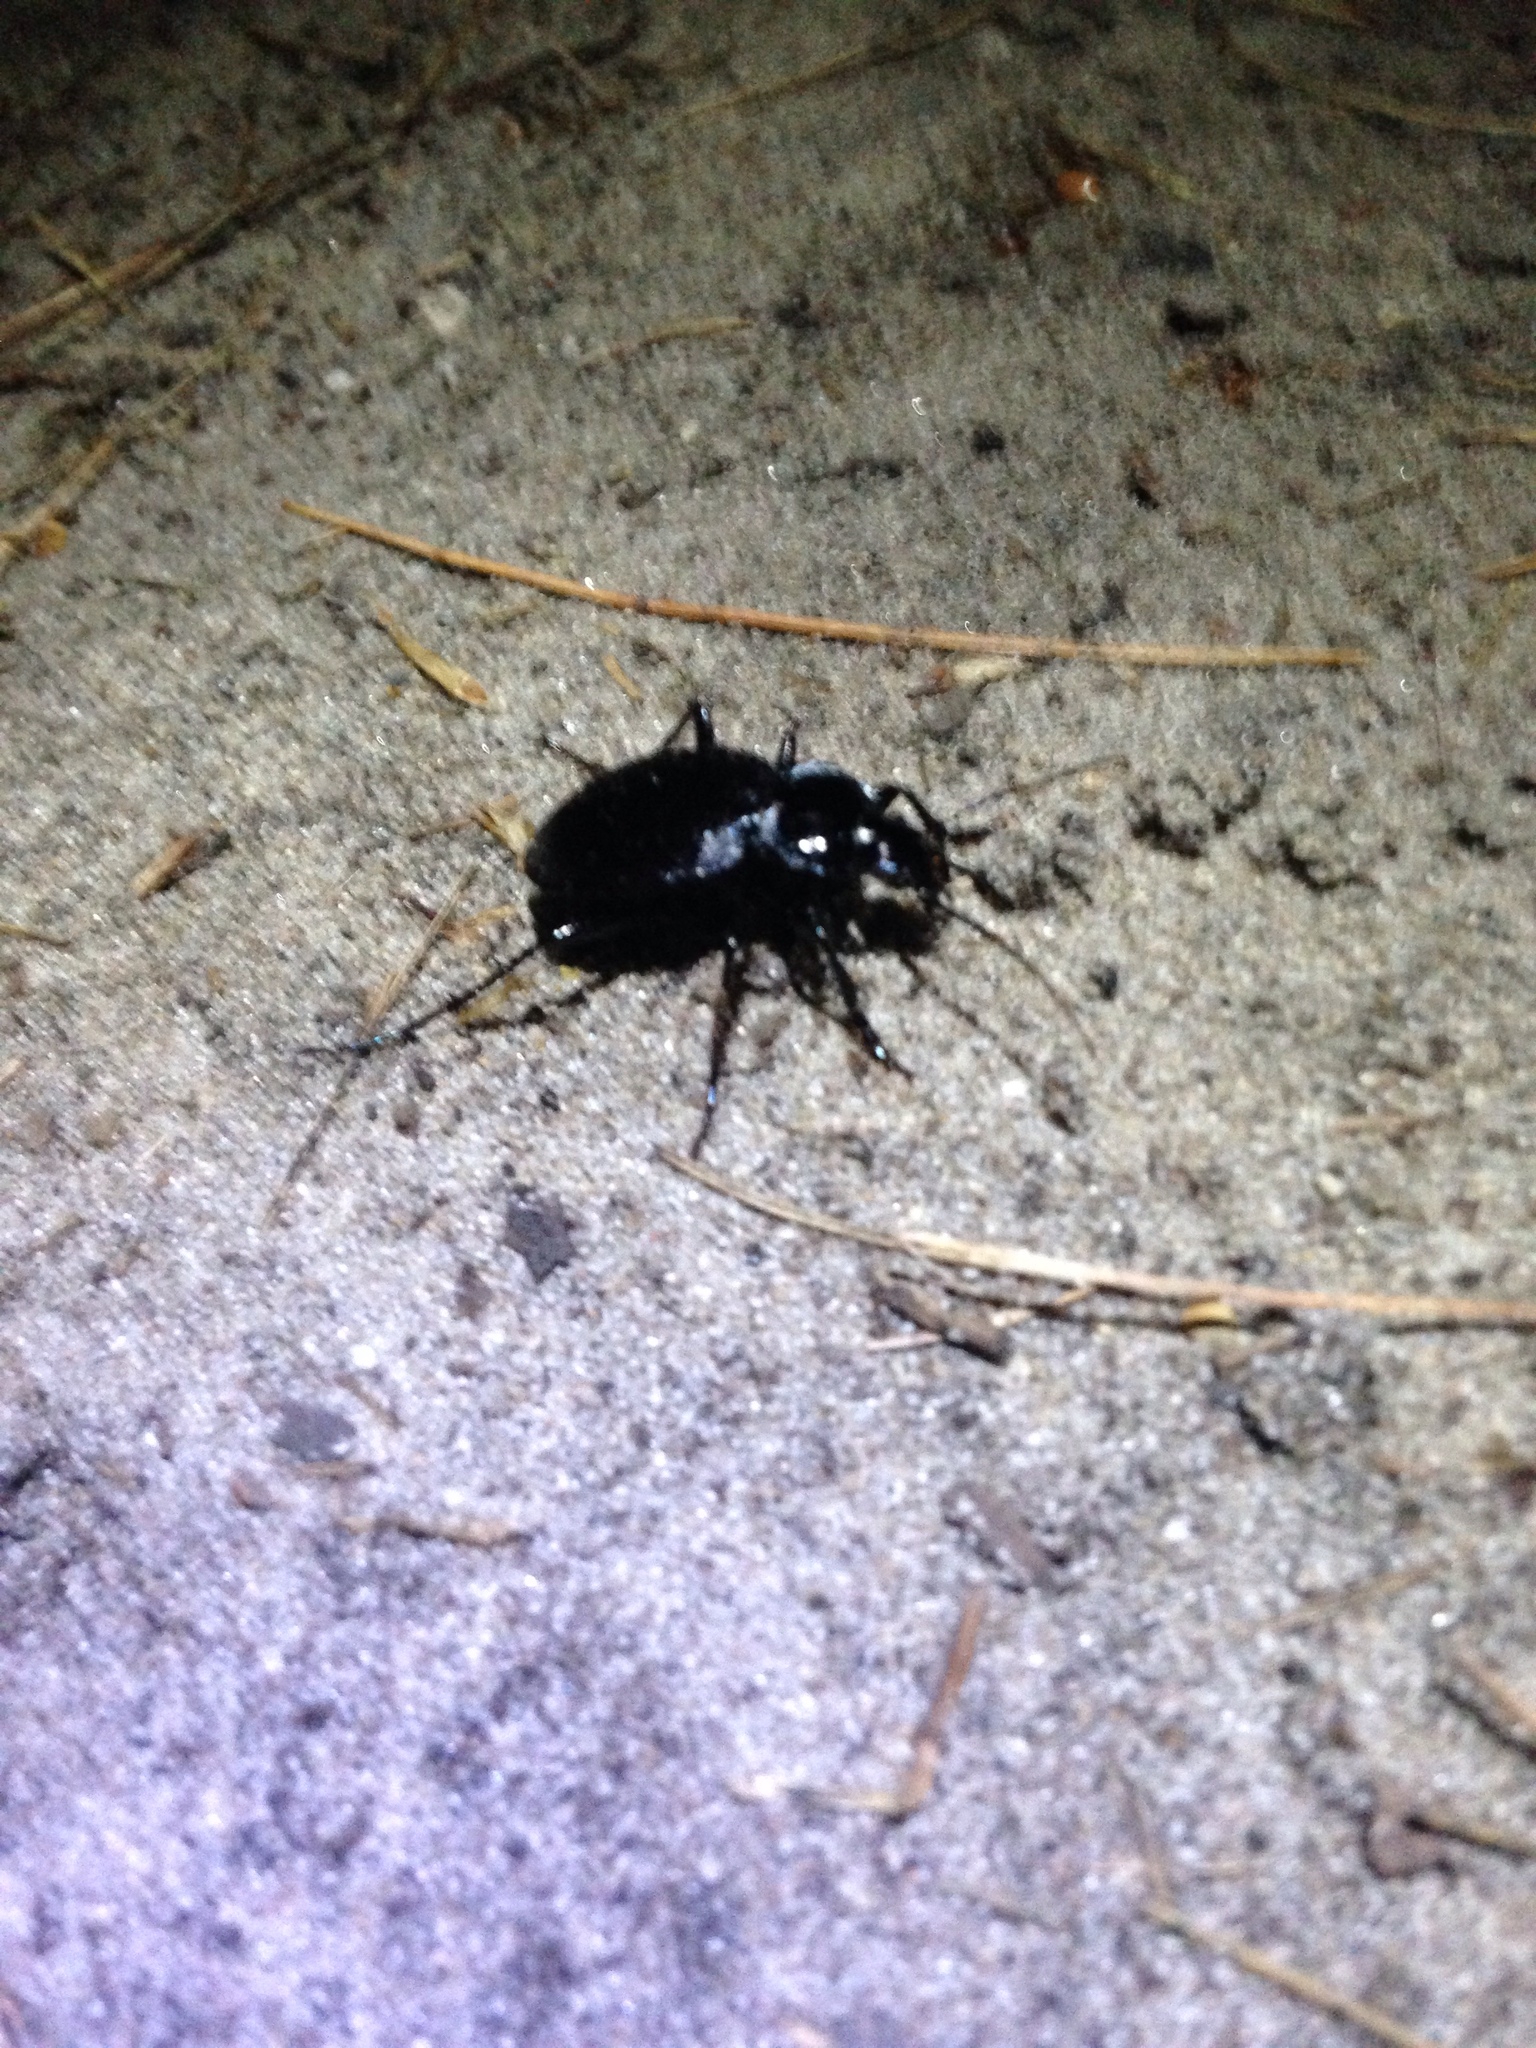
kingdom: Animalia
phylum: Arthropoda
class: Insecta
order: Coleoptera
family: Carabidae
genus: Carabus
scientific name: Carabus
